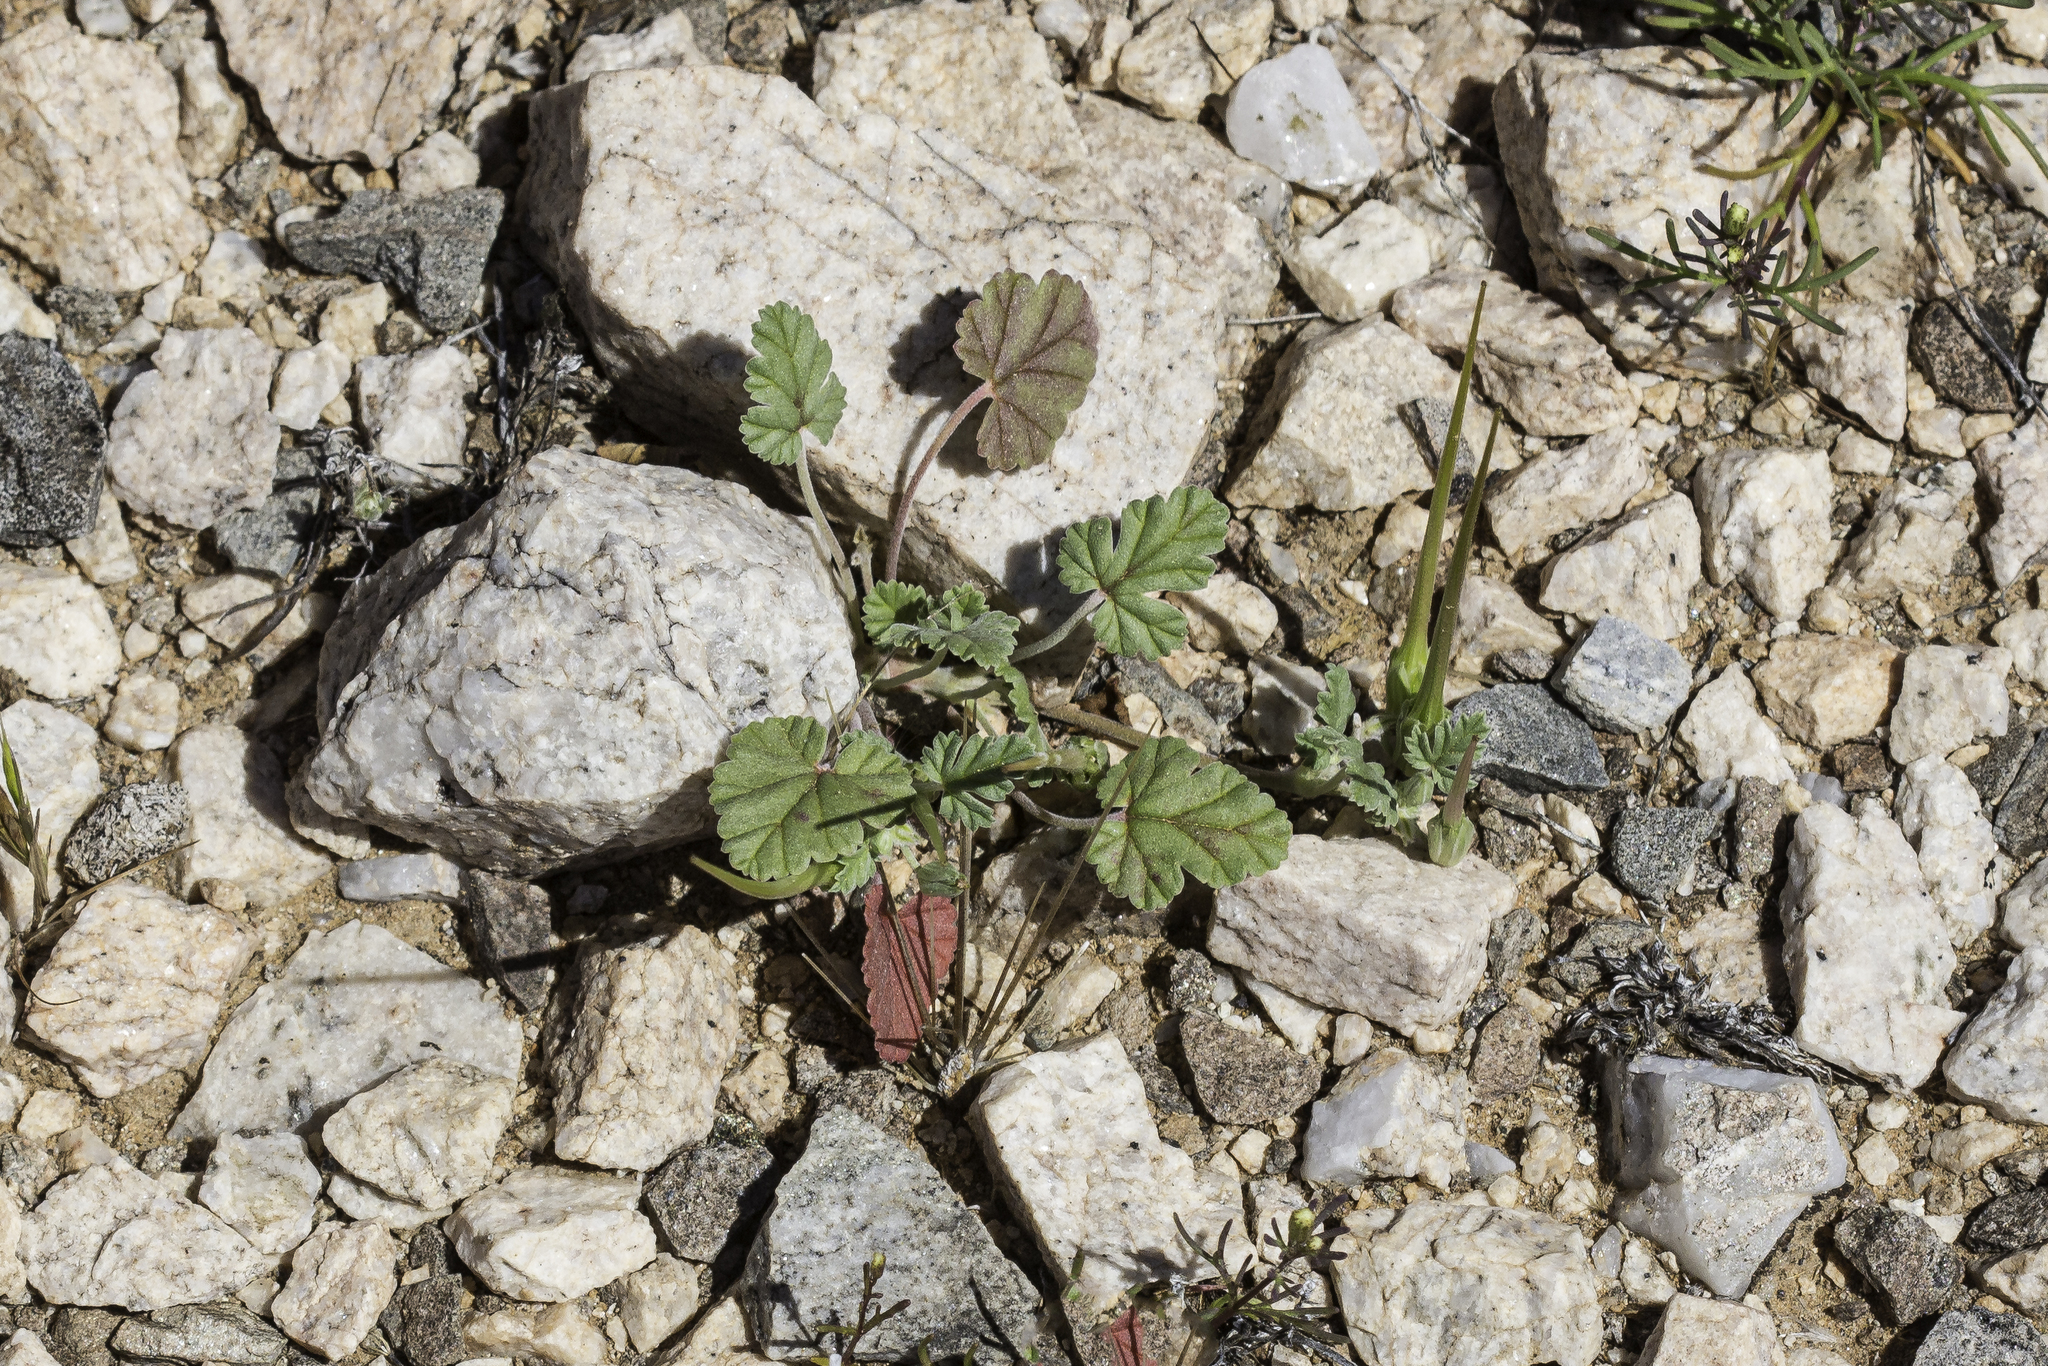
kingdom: Plantae
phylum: Tracheophyta
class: Magnoliopsida
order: Geraniales
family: Geraniaceae
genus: Erodium
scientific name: Erodium texanum
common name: Texas stork's-bill
